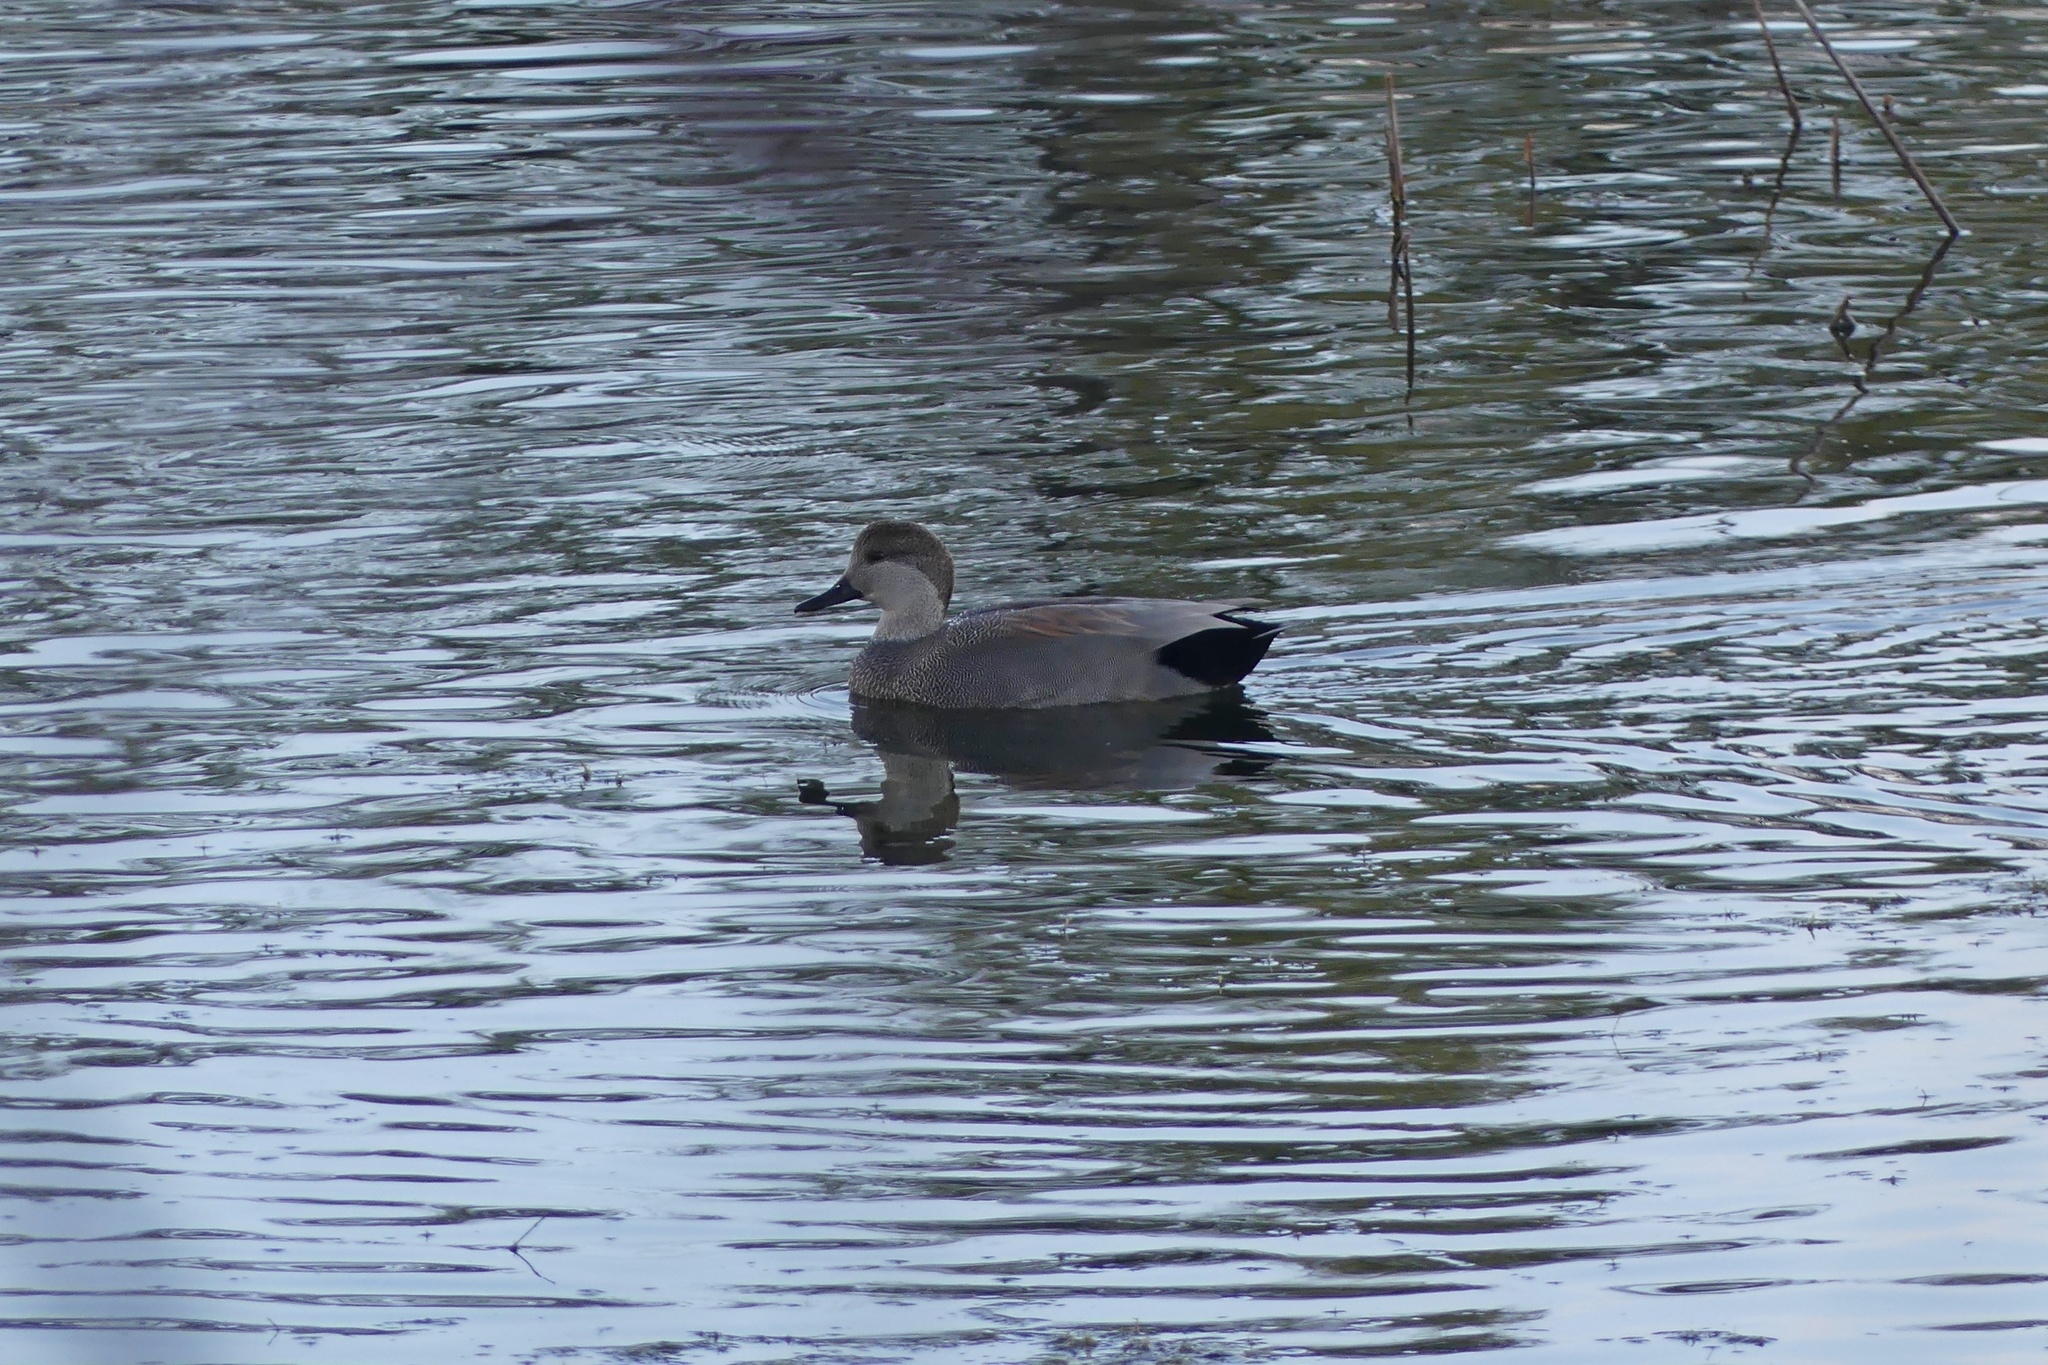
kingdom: Animalia
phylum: Chordata
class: Aves
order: Anseriformes
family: Anatidae
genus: Mareca
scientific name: Mareca strepera
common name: Gadwall
